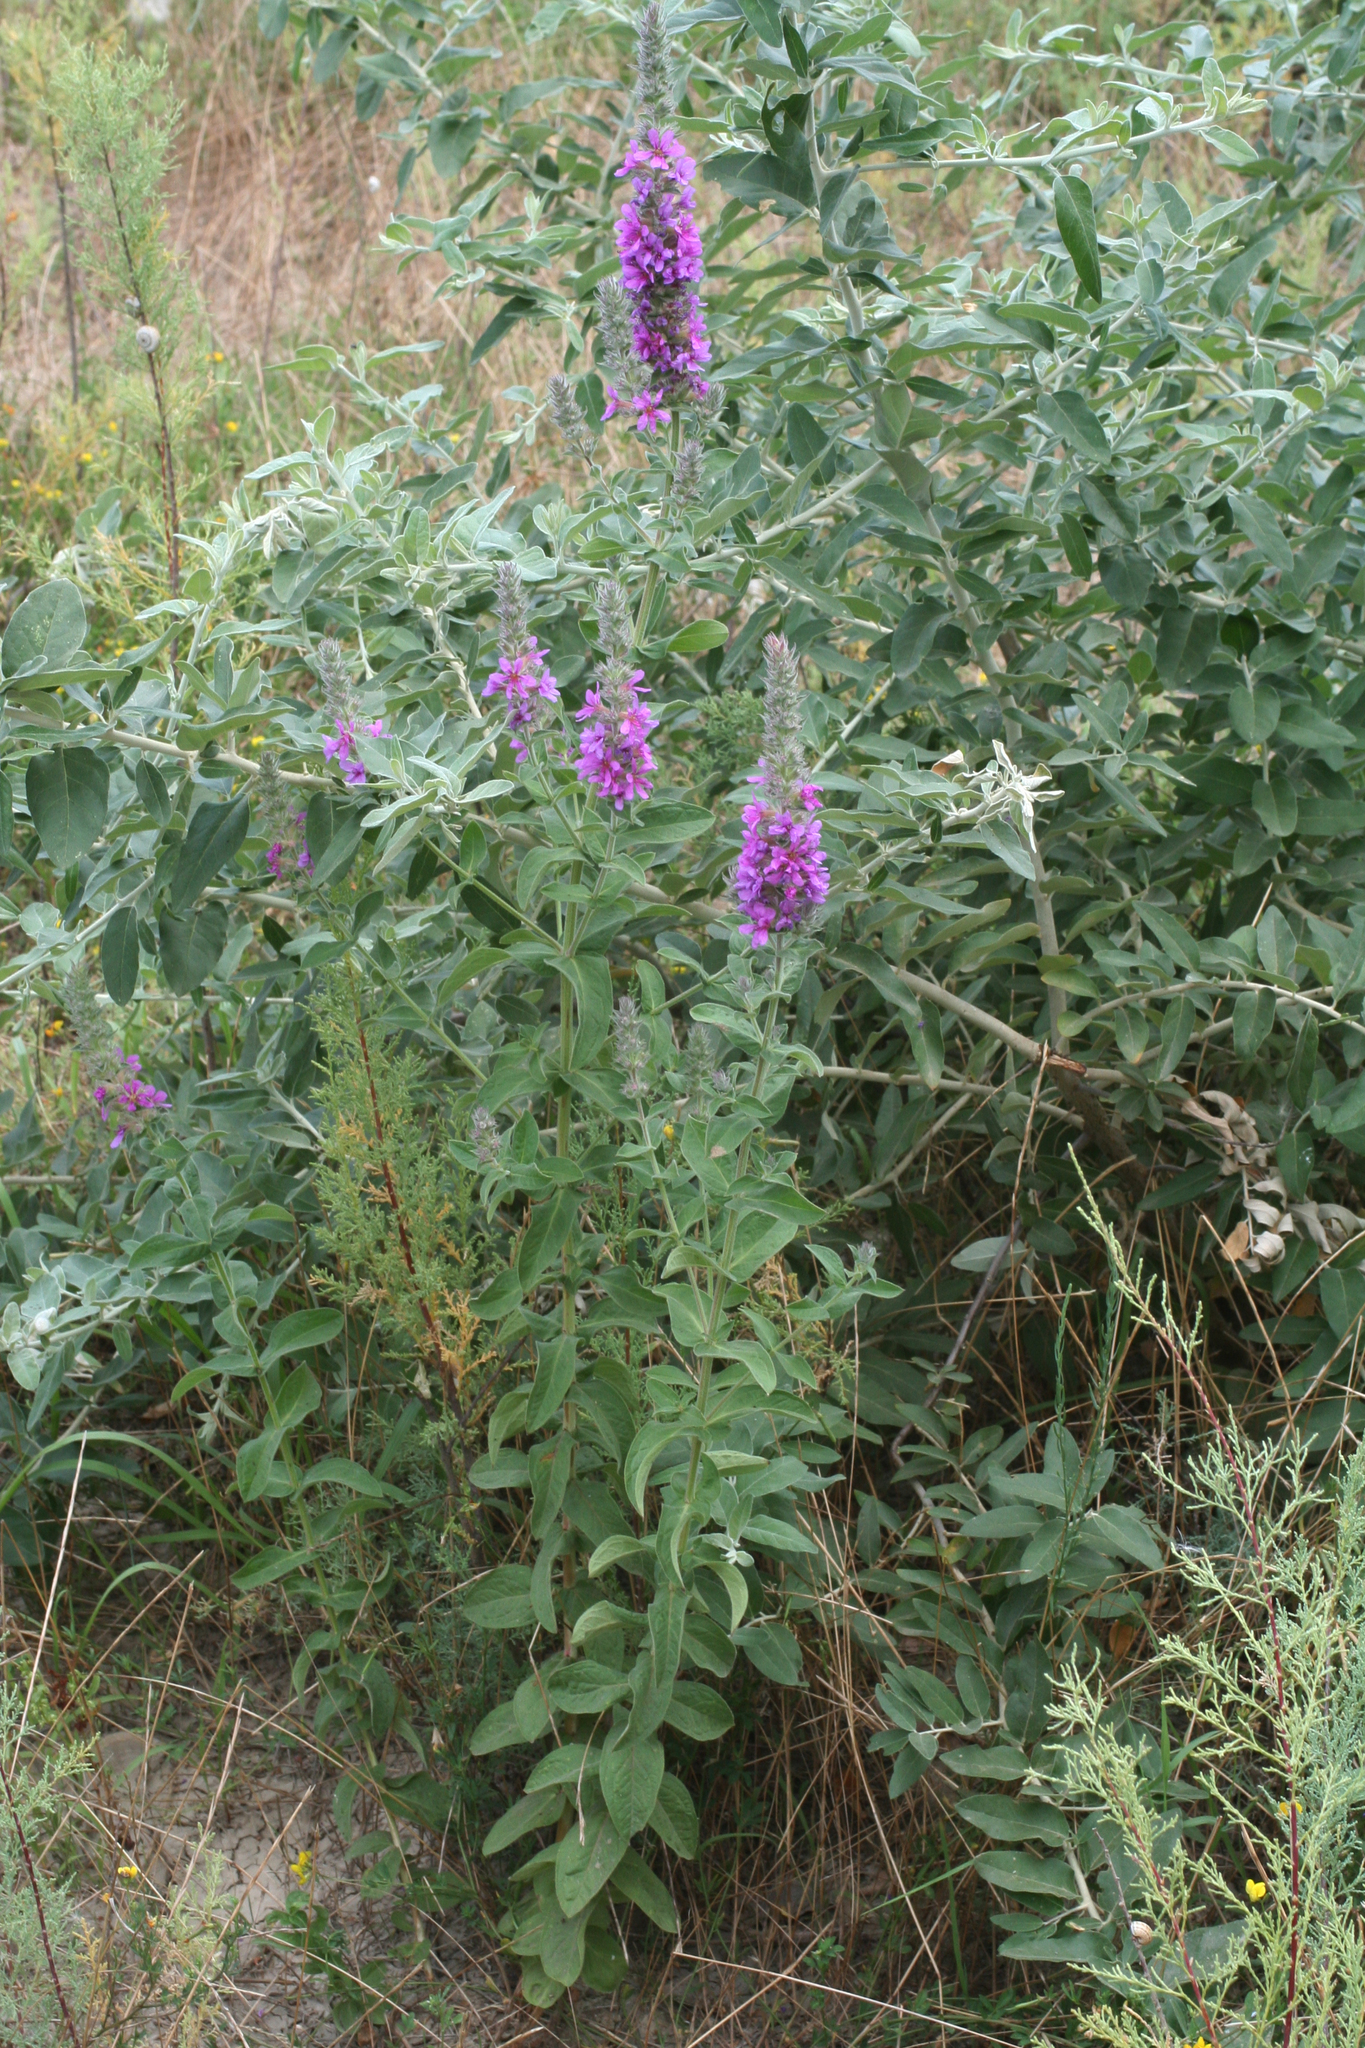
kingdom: Plantae
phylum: Tracheophyta
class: Magnoliopsida
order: Myrtales
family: Lythraceae
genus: Lythrum
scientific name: Lythrum salicaria
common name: Purple loosestrife
